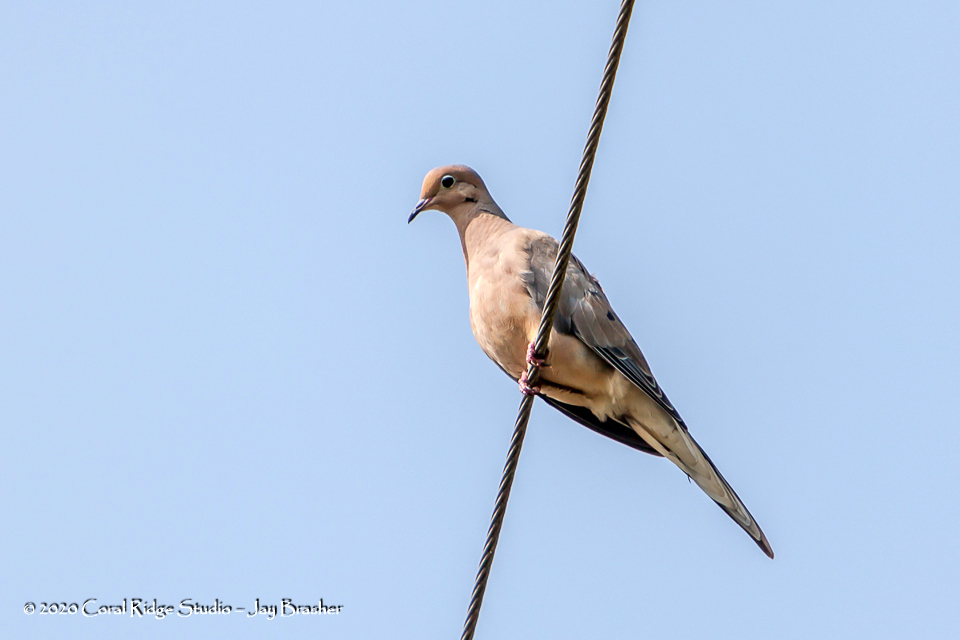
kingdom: Animalia
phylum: Chordata
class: Aves
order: Columbiformes
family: Columbidae
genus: Zenaida
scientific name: Zenaida macroura
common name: Mourning dove
